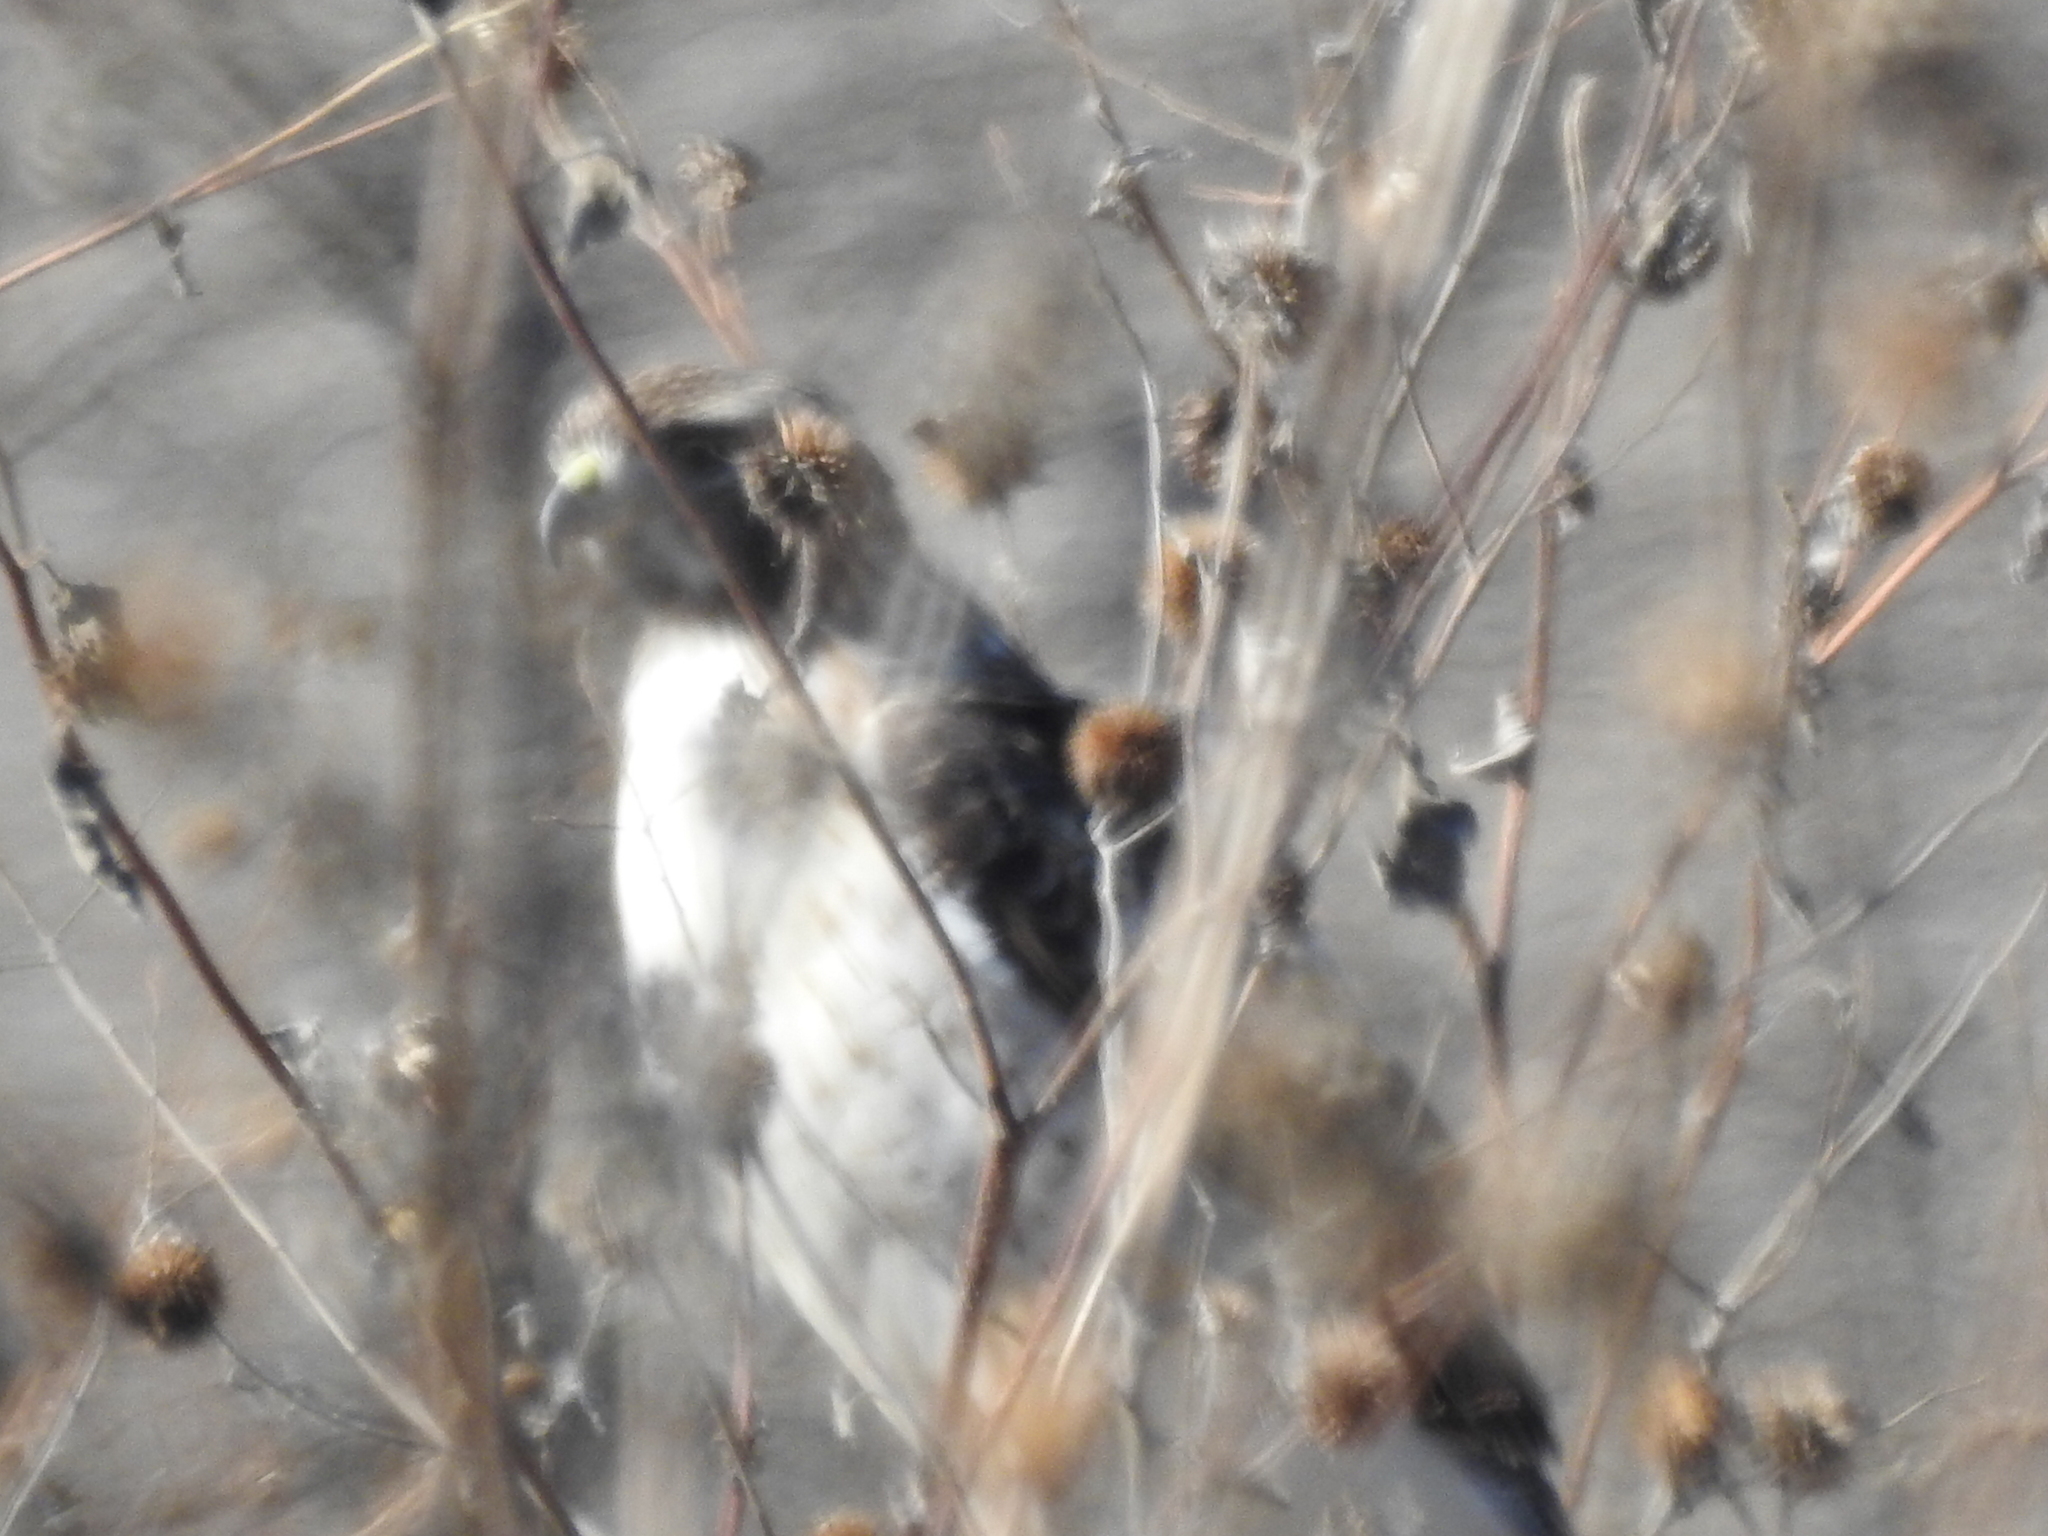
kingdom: Animalia
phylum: Chordata
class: Aves
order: Accipitriformes
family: Accipitridae
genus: Buteo
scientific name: Buteo jamaicensis
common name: Red-tailed hawk
